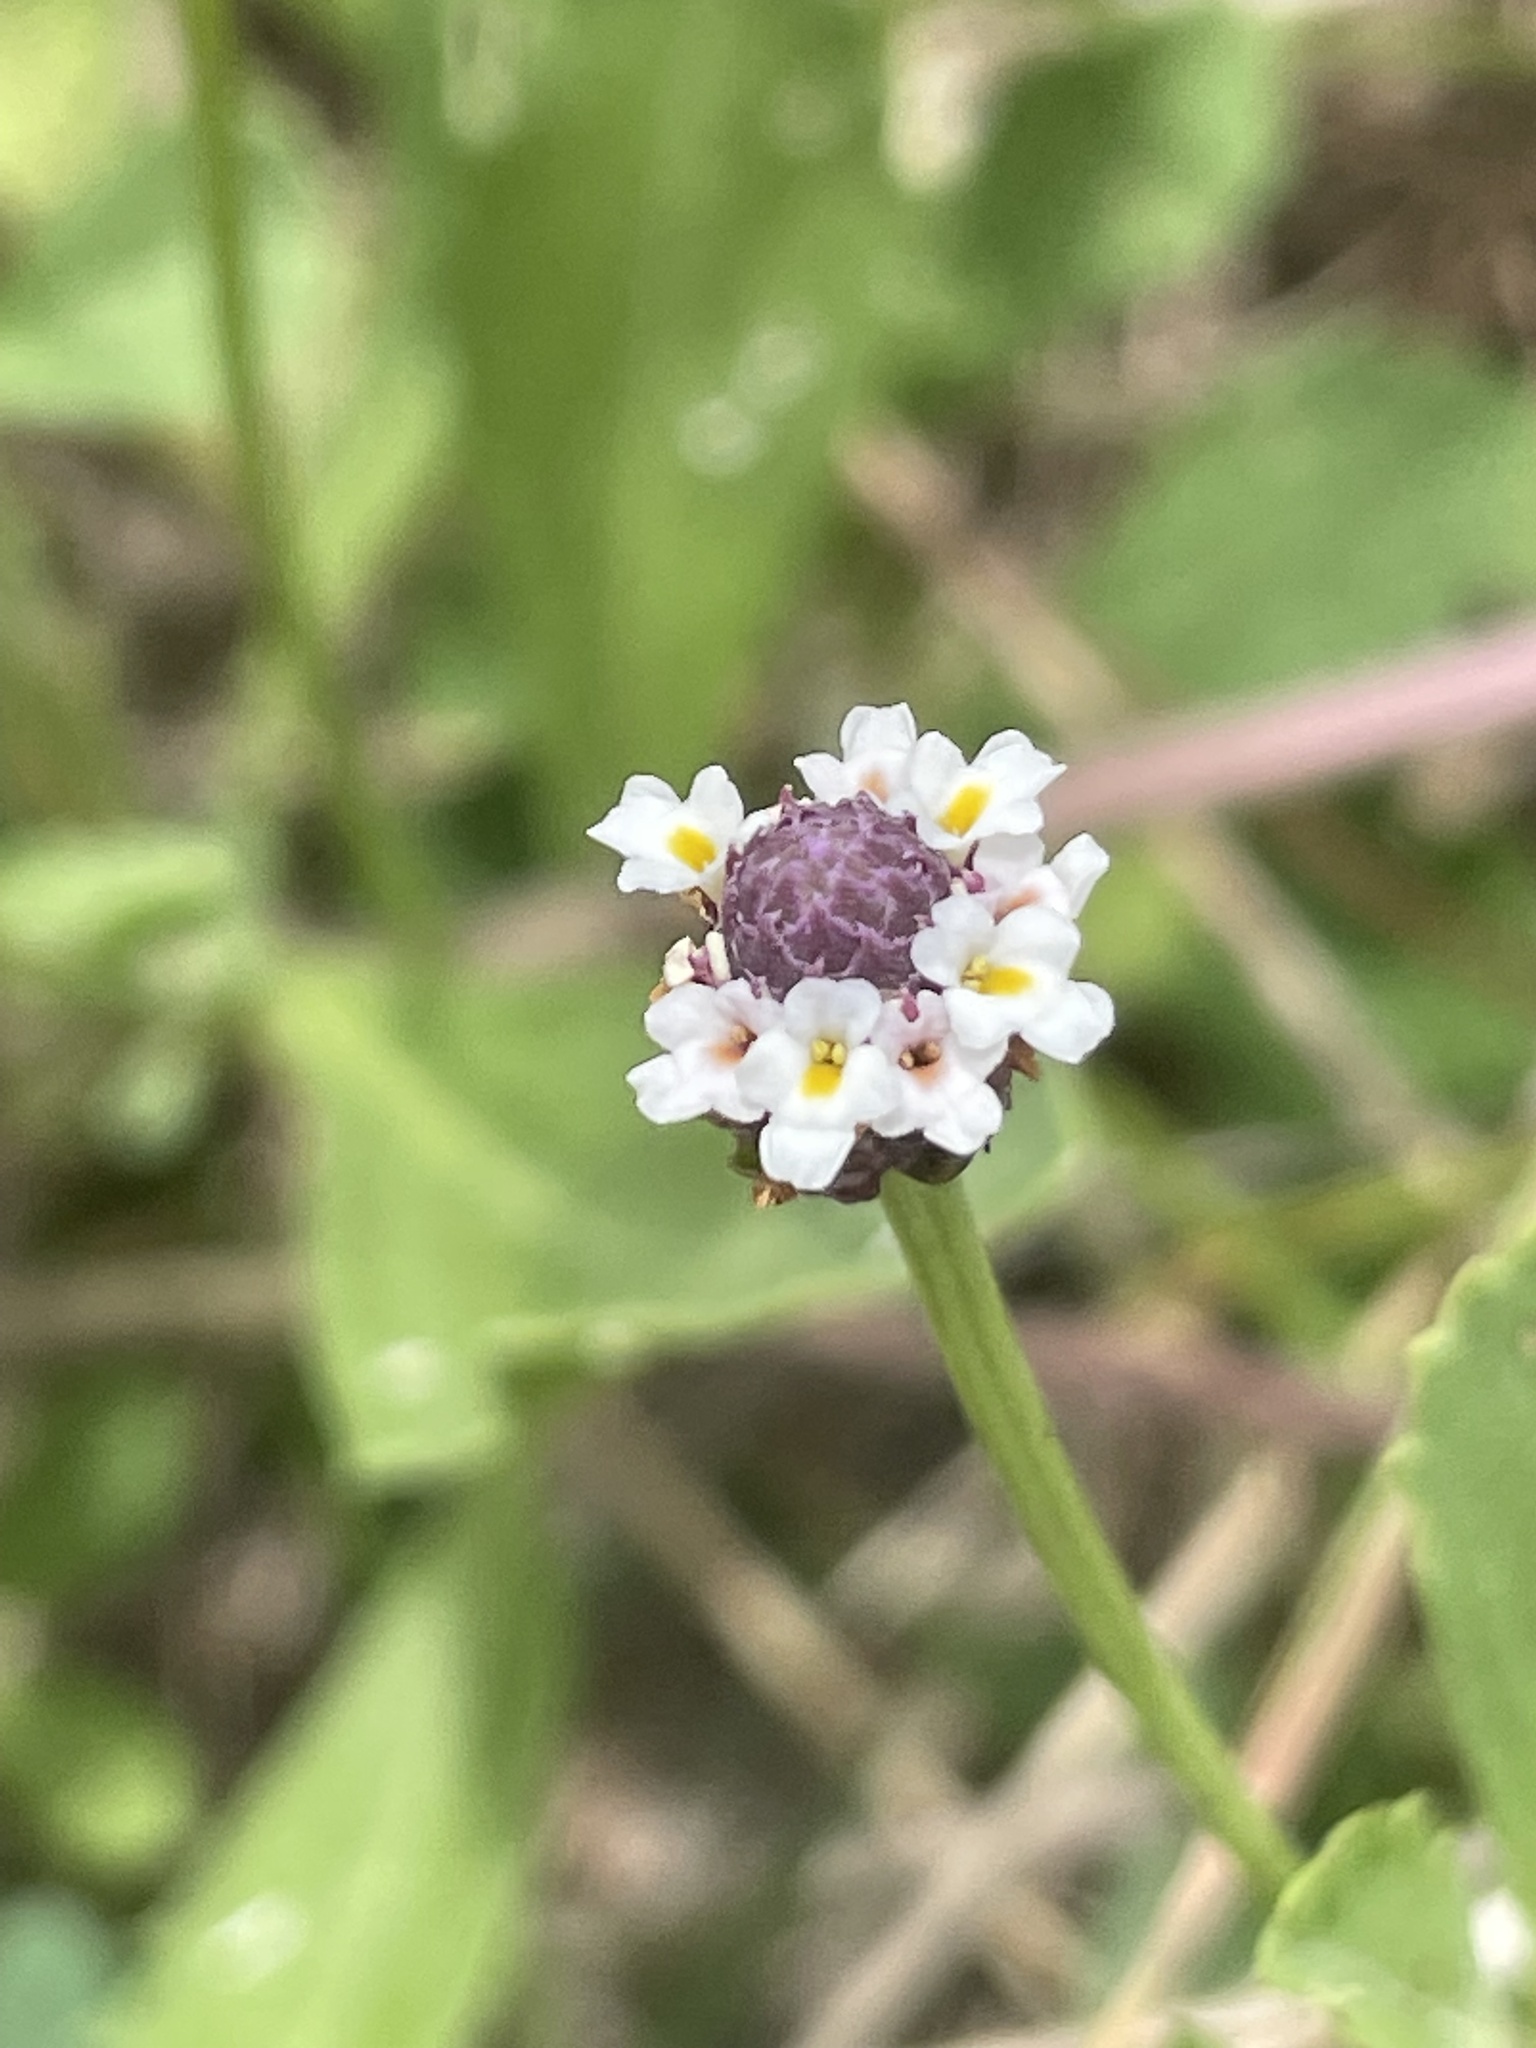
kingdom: Plantae
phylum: Tracheophyta
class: Magnoliopsida
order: Lamiales
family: Verbenaceae
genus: Phyla
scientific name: Phyla nodiflora
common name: Frogfruit
